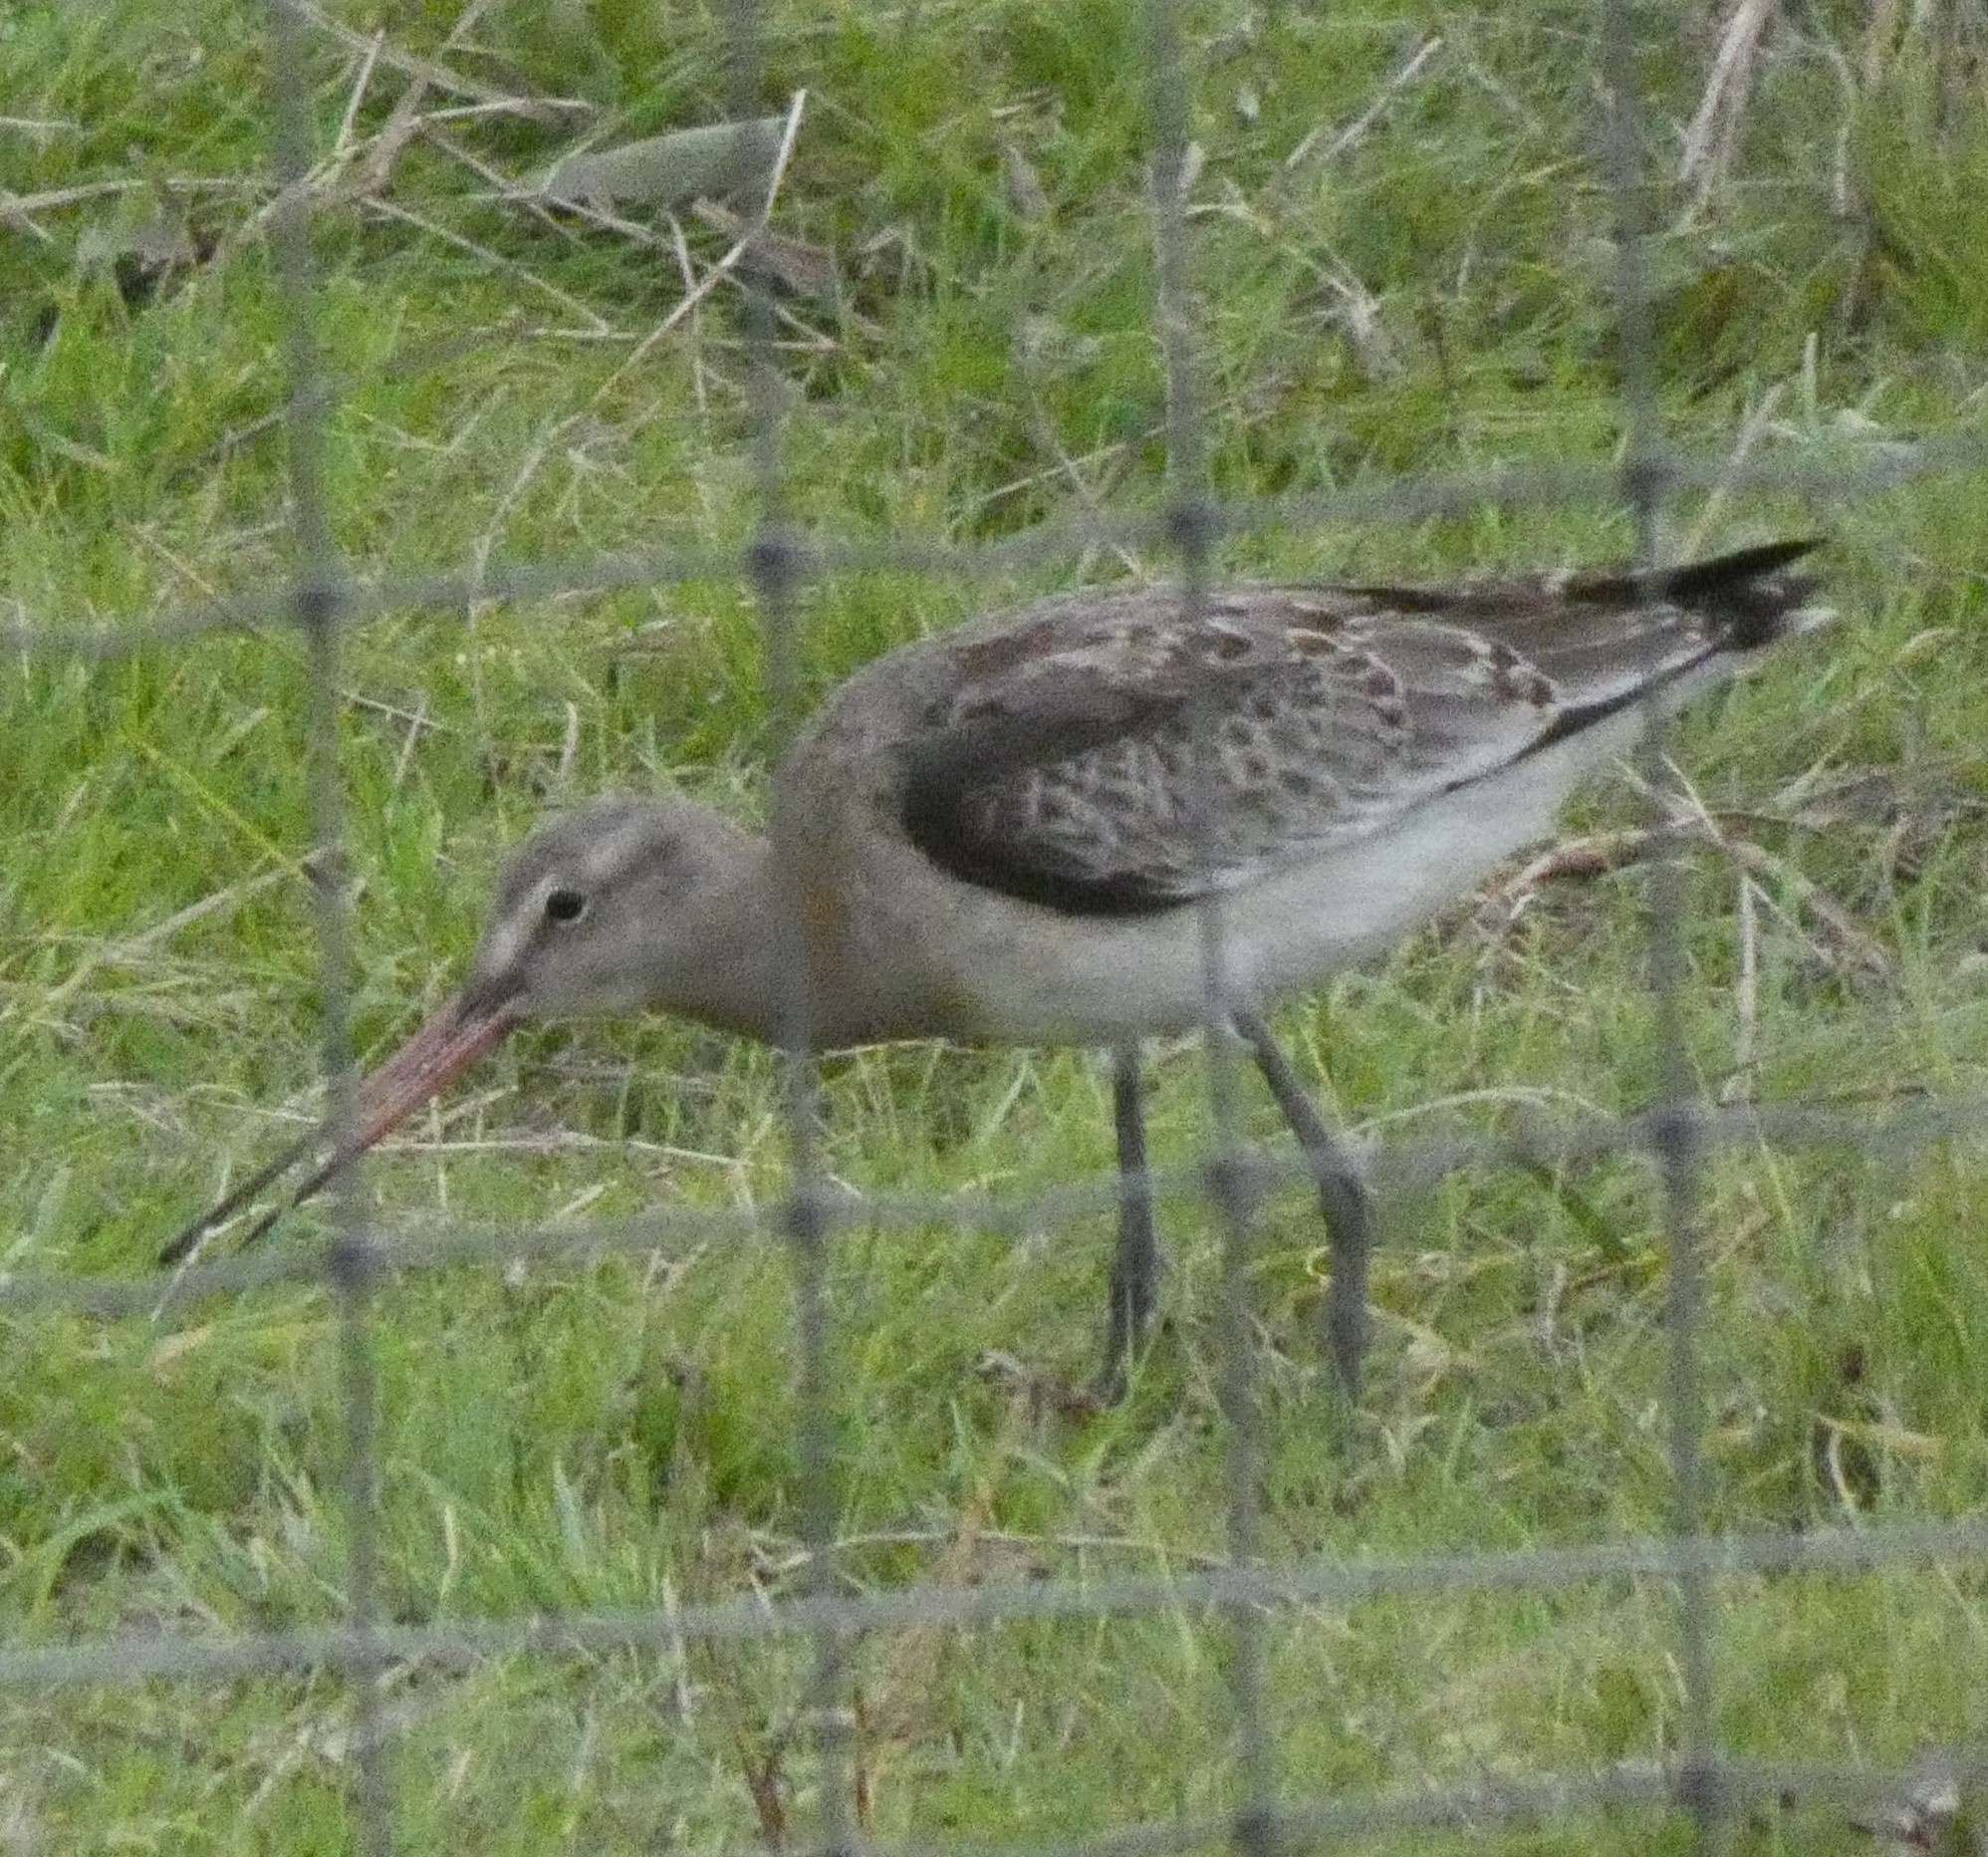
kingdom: Animalia
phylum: Chordata
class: Aves
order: Charadriiformes
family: Scolopacidae
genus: Limosa
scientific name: Limosa limosa
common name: Black-tailed godwit
